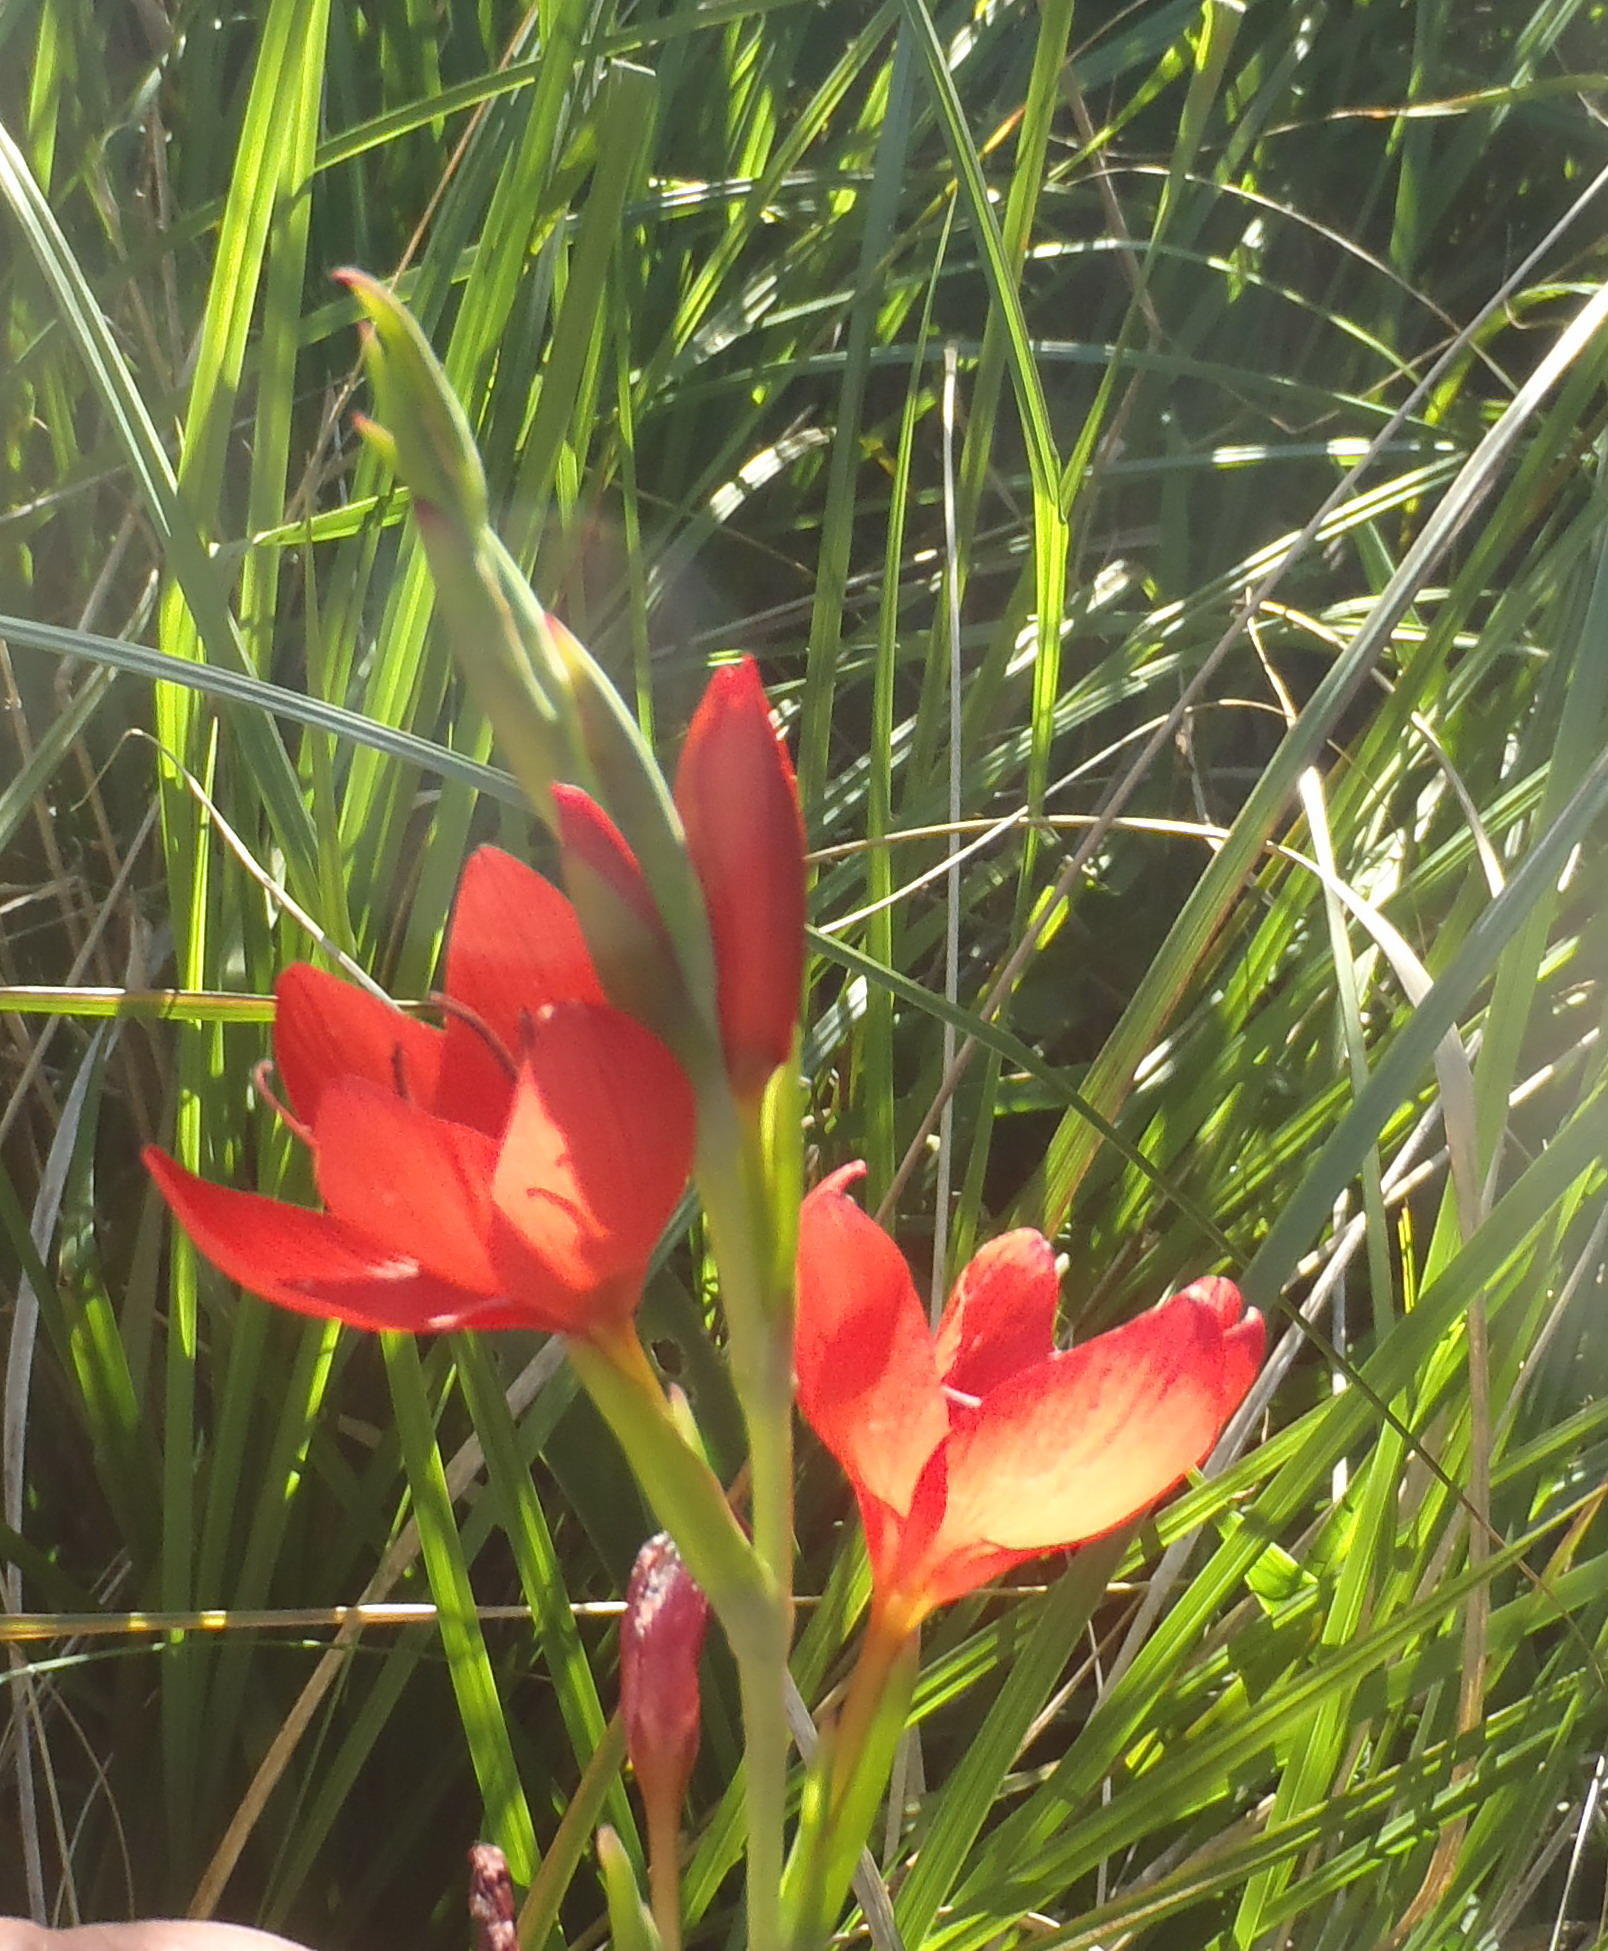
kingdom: Plantae
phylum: Tracheophyta
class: Liliopsida
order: Asparagales
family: Iridaceae
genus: Hesperantha
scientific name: Hesperantha coccinea
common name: River-lily
